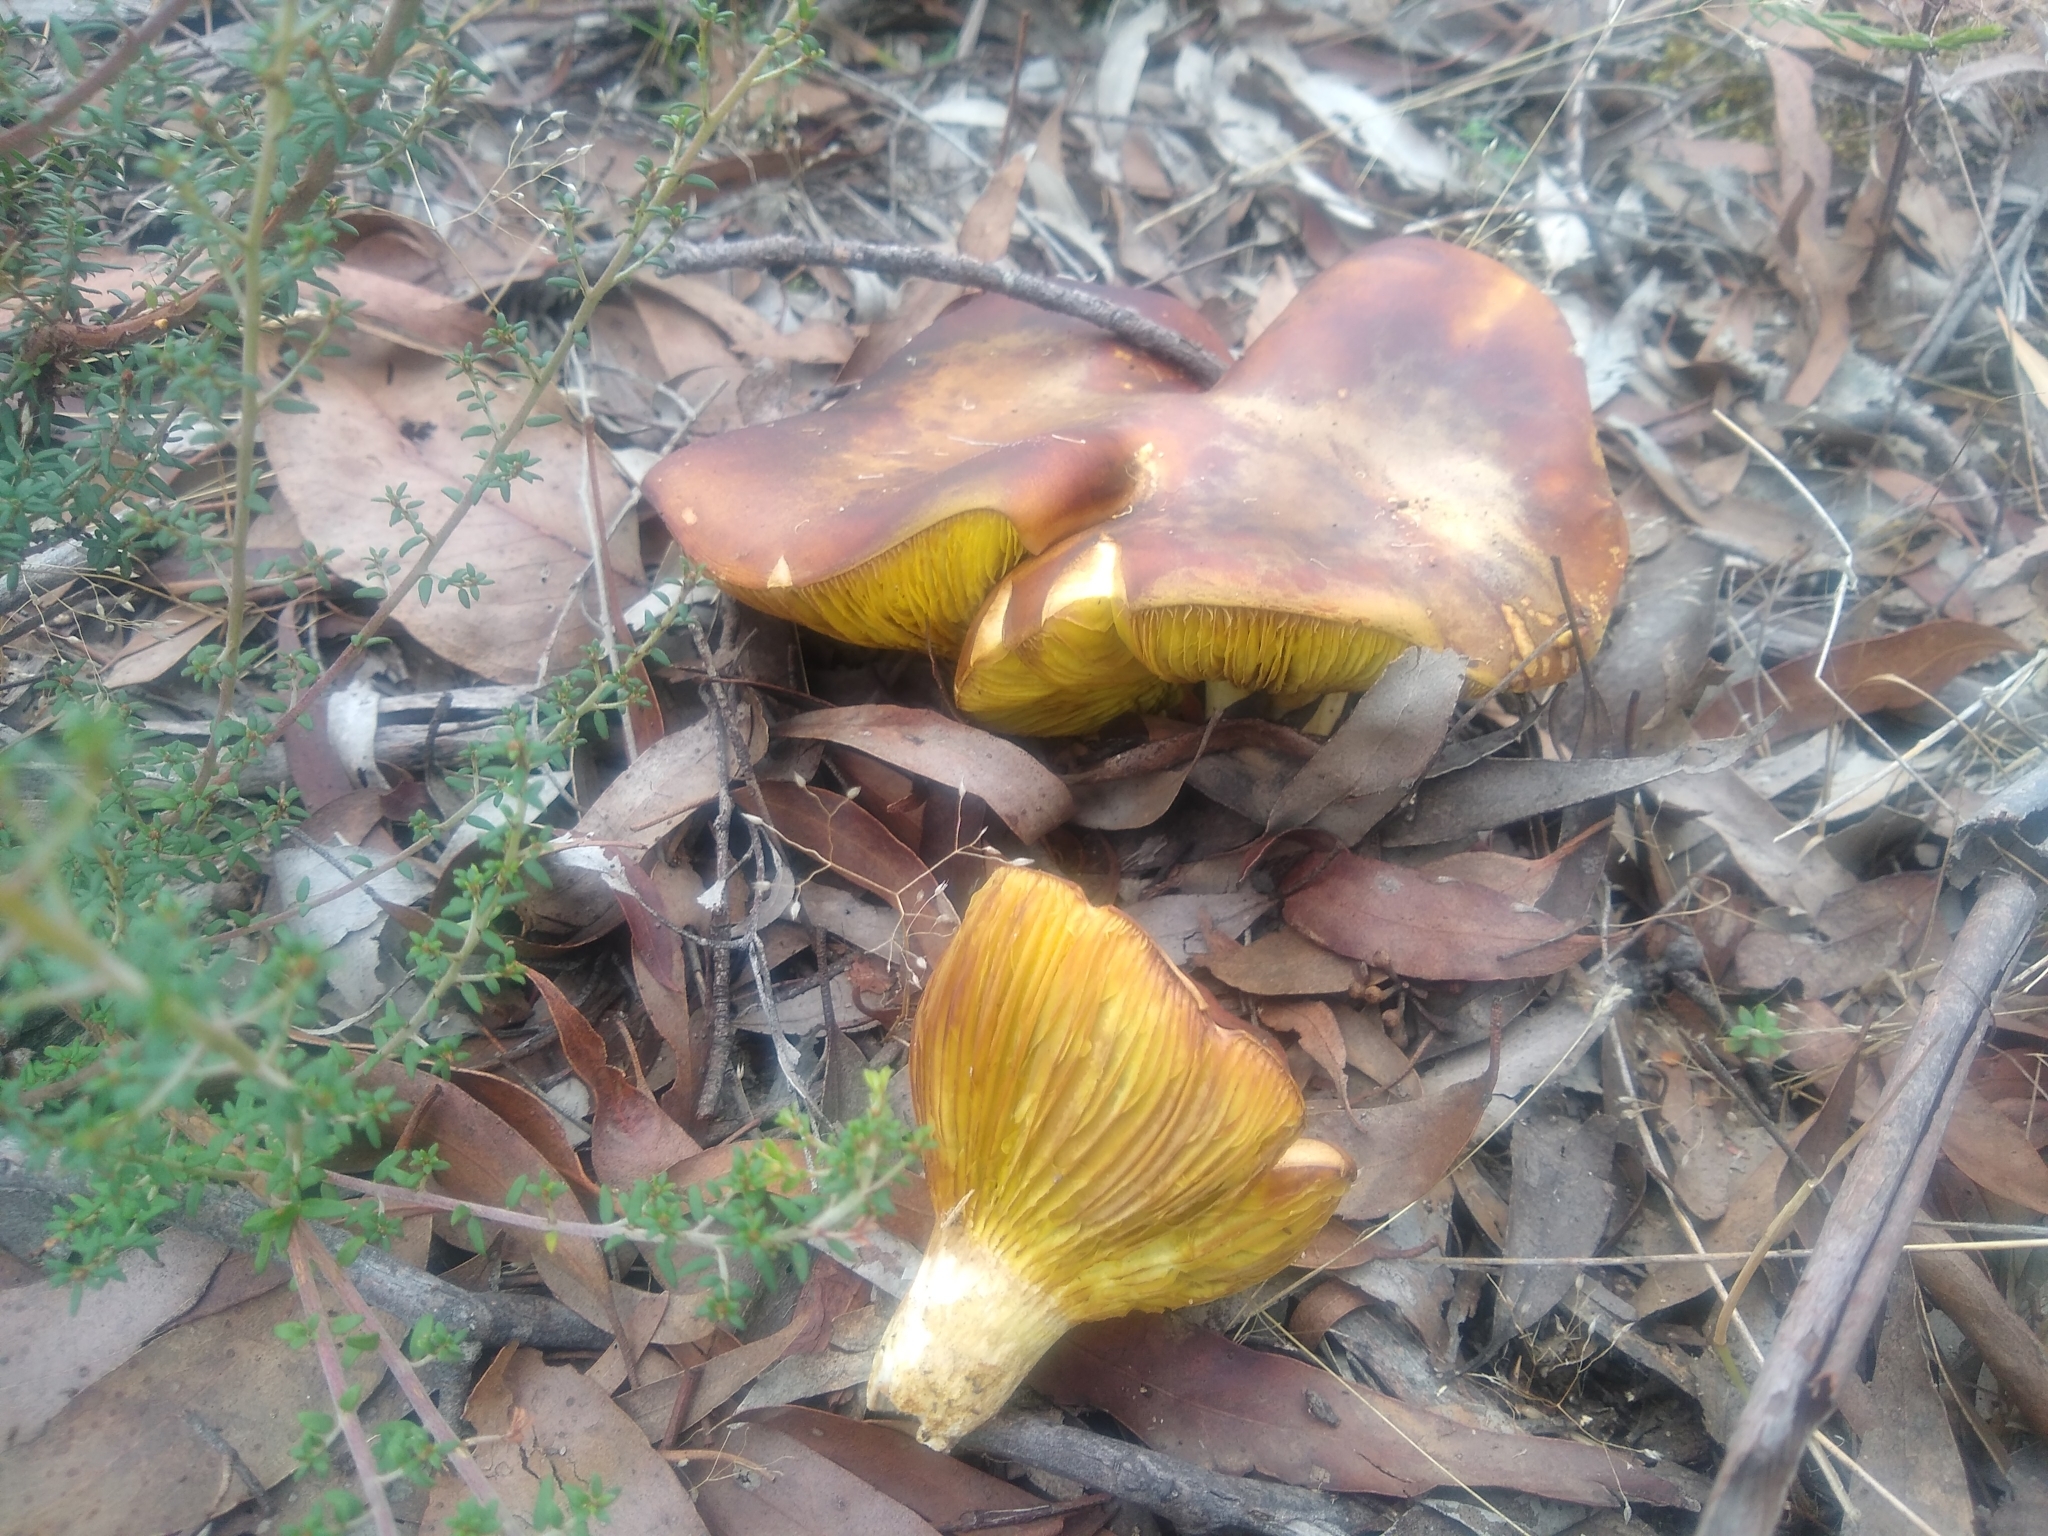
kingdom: Fungi
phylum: Basidiomycota
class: Agaricomycetes
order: Boletales
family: Boletaceae
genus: Phylloporus
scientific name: Phylloporus rhodoxanthus
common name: Golden gilled bolete
